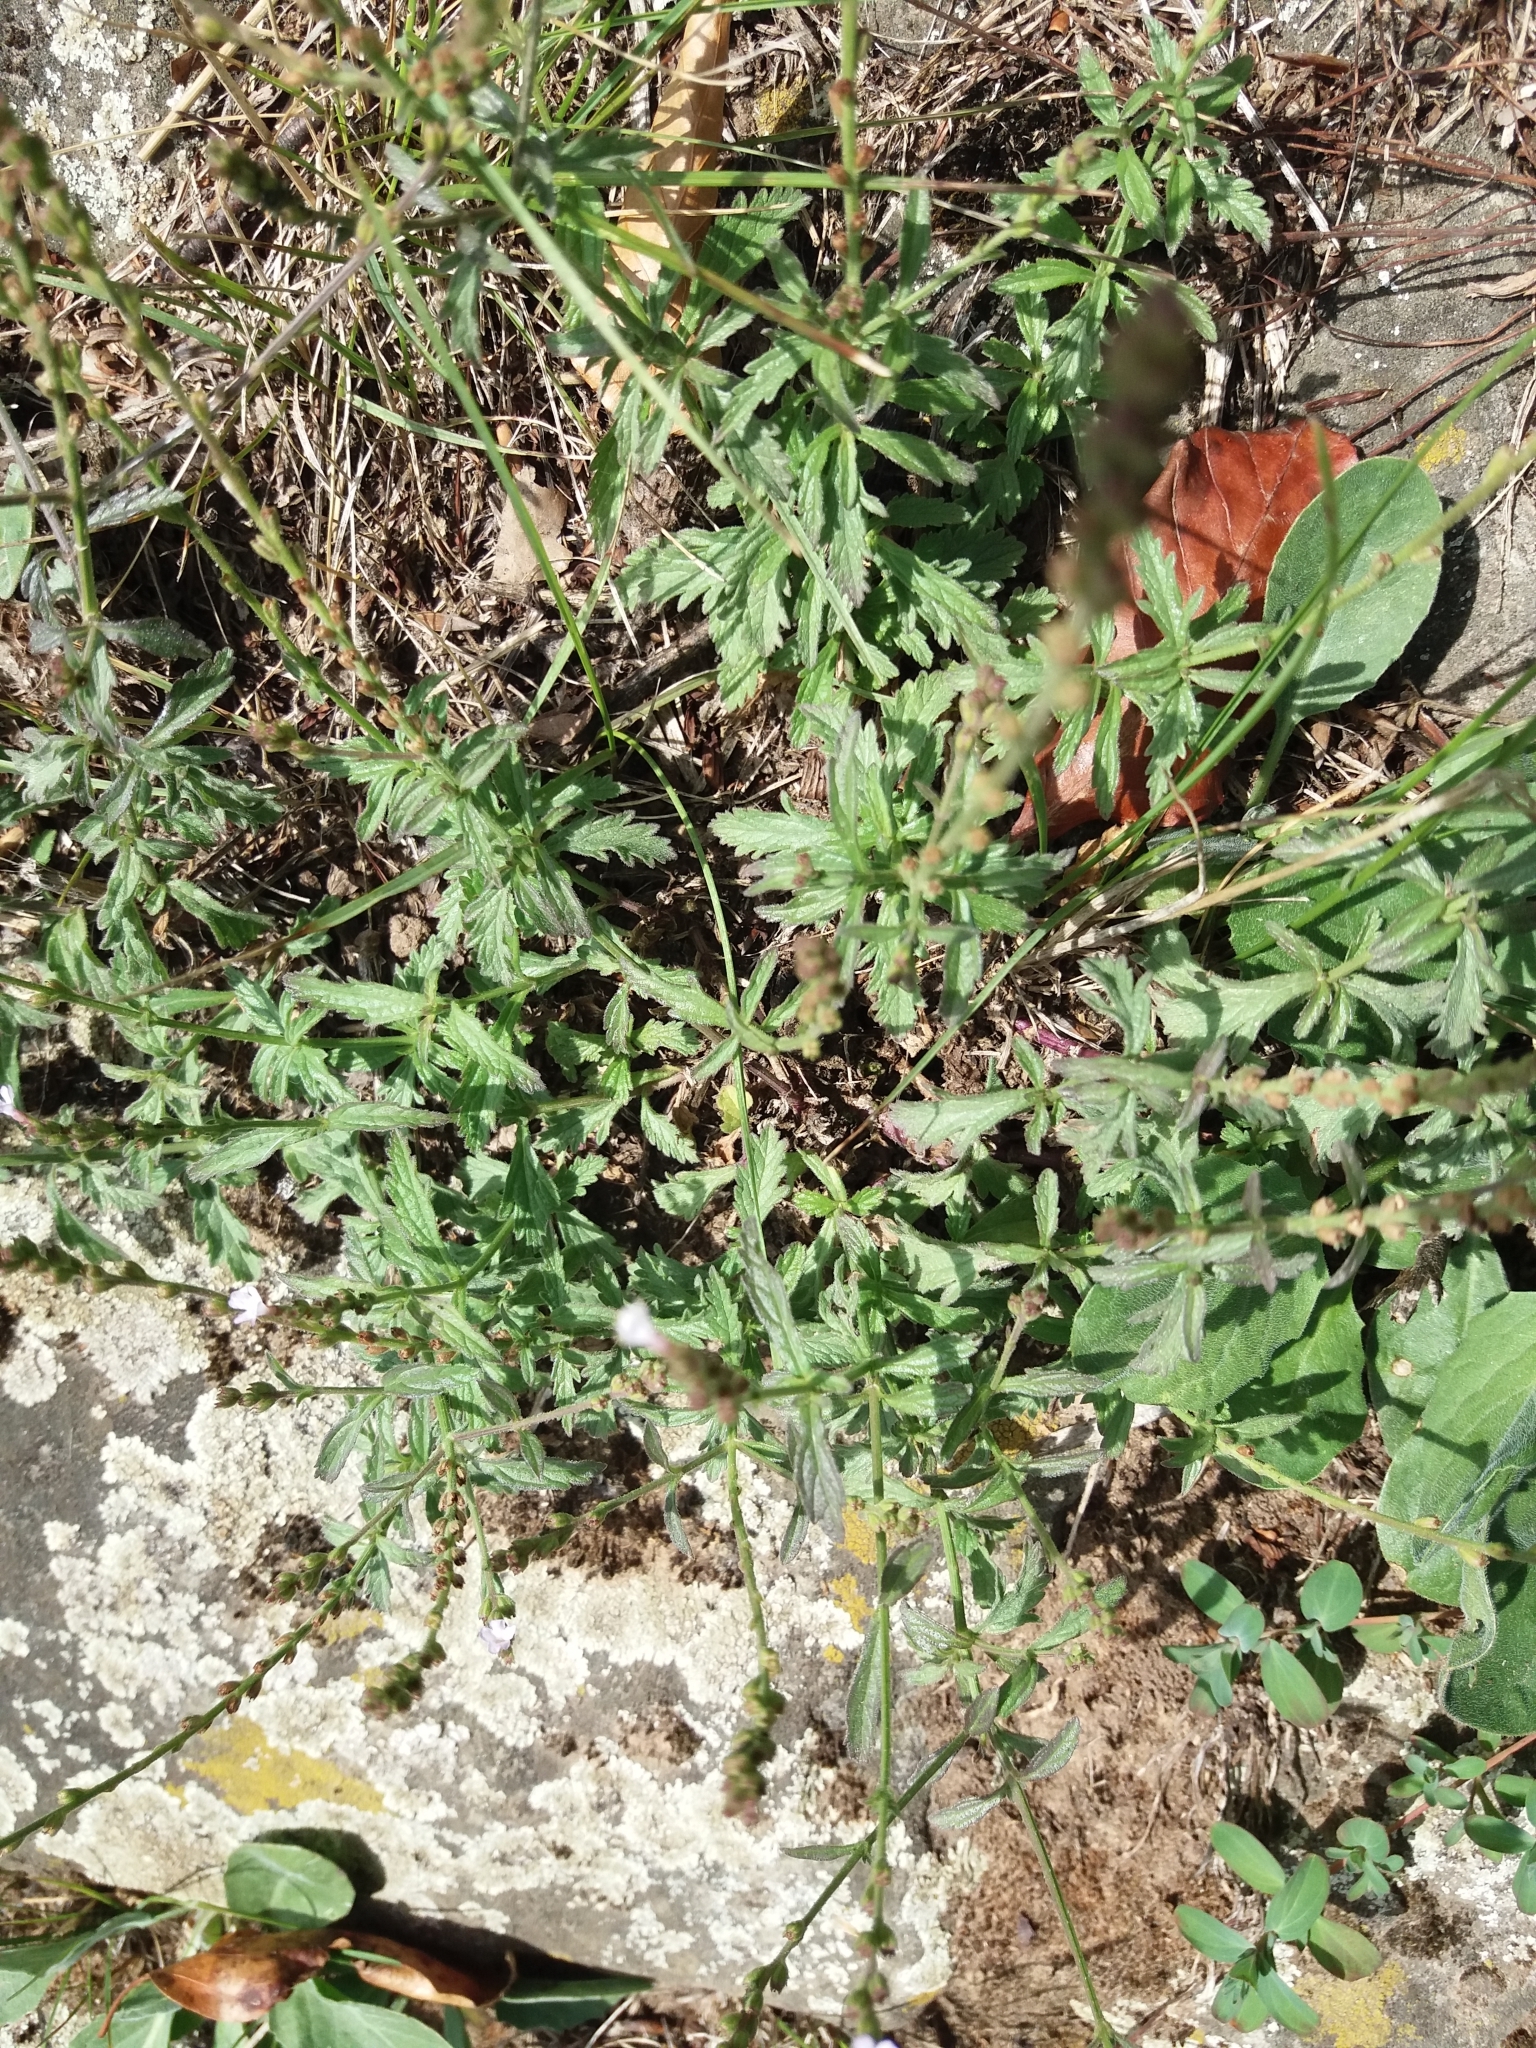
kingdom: Plantae
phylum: Tracheophyta
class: Magnoliopsida
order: Lamiales
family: Verbenaceae
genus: Verbena
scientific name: Verbena officinalis
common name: Vervain
